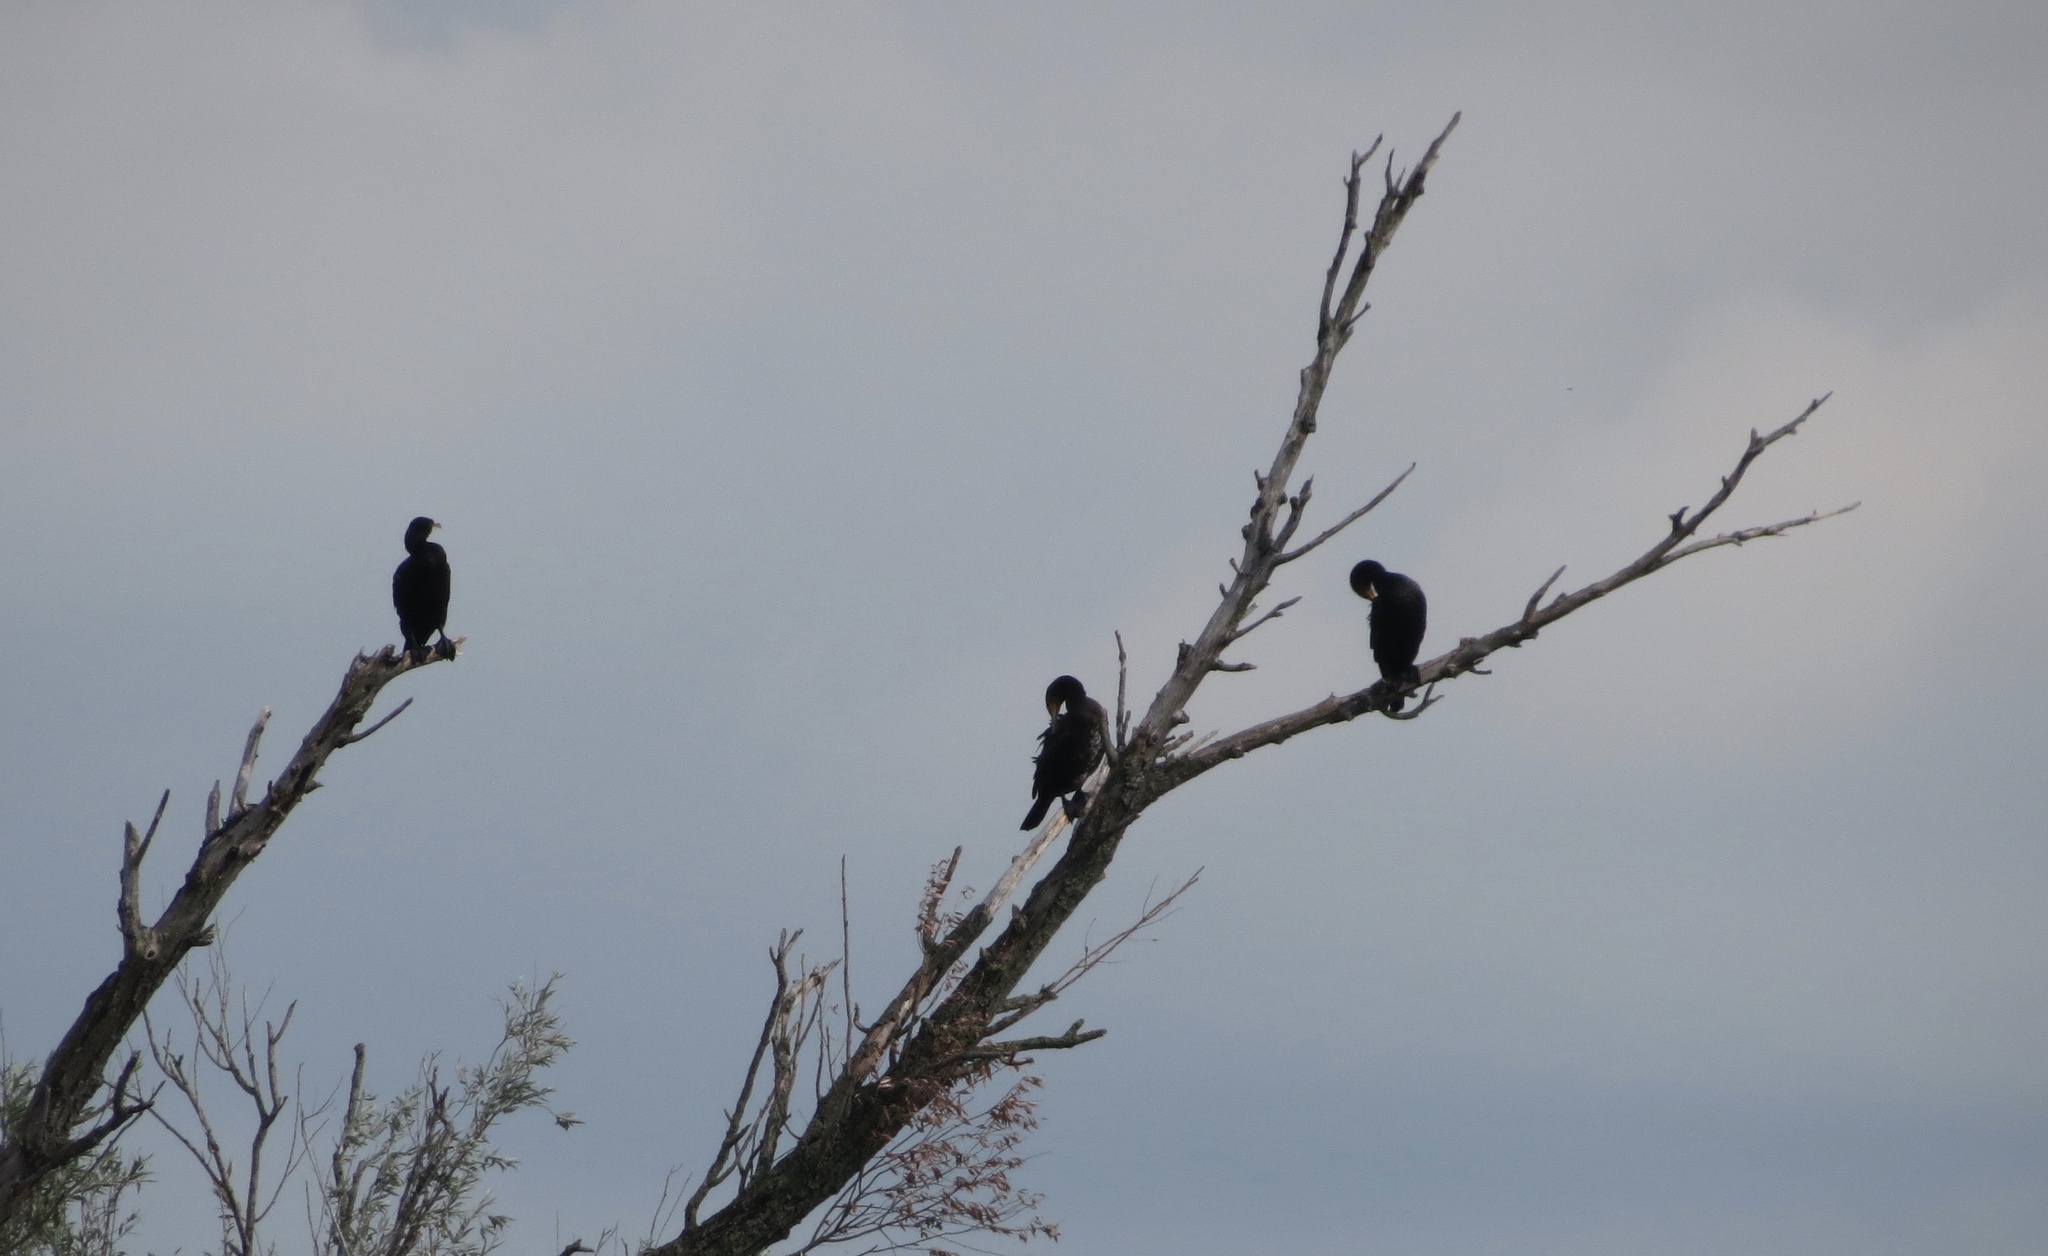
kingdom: Animalia
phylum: Chordata
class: Aves
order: Suliformes
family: Phalacrocoracidae
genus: Phalacrocorax
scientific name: Phalacrocorax carbo
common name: Great cormorant
